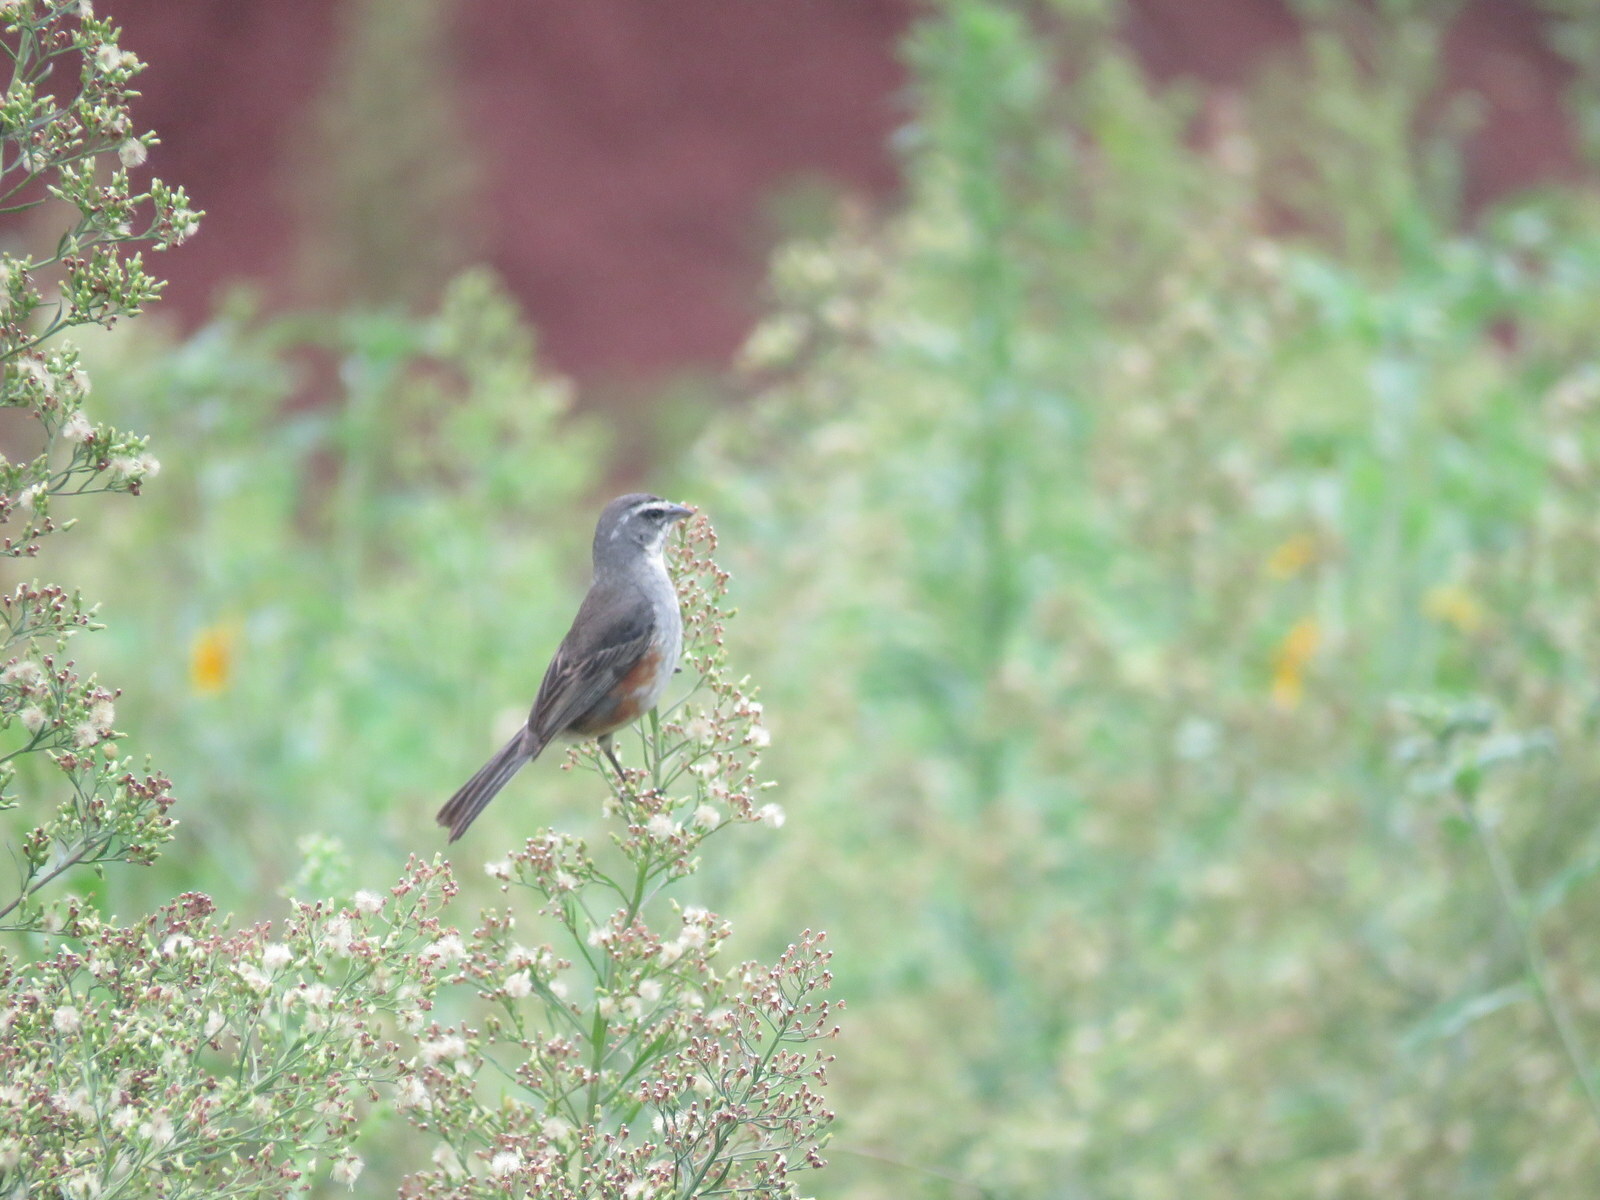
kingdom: Animalia
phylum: Chordata
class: Aves
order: Passeriformes
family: Thraupidae
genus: Poospizopsis
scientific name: Poospizopsis hypocondria
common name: Rufous-sided warbling-finch
